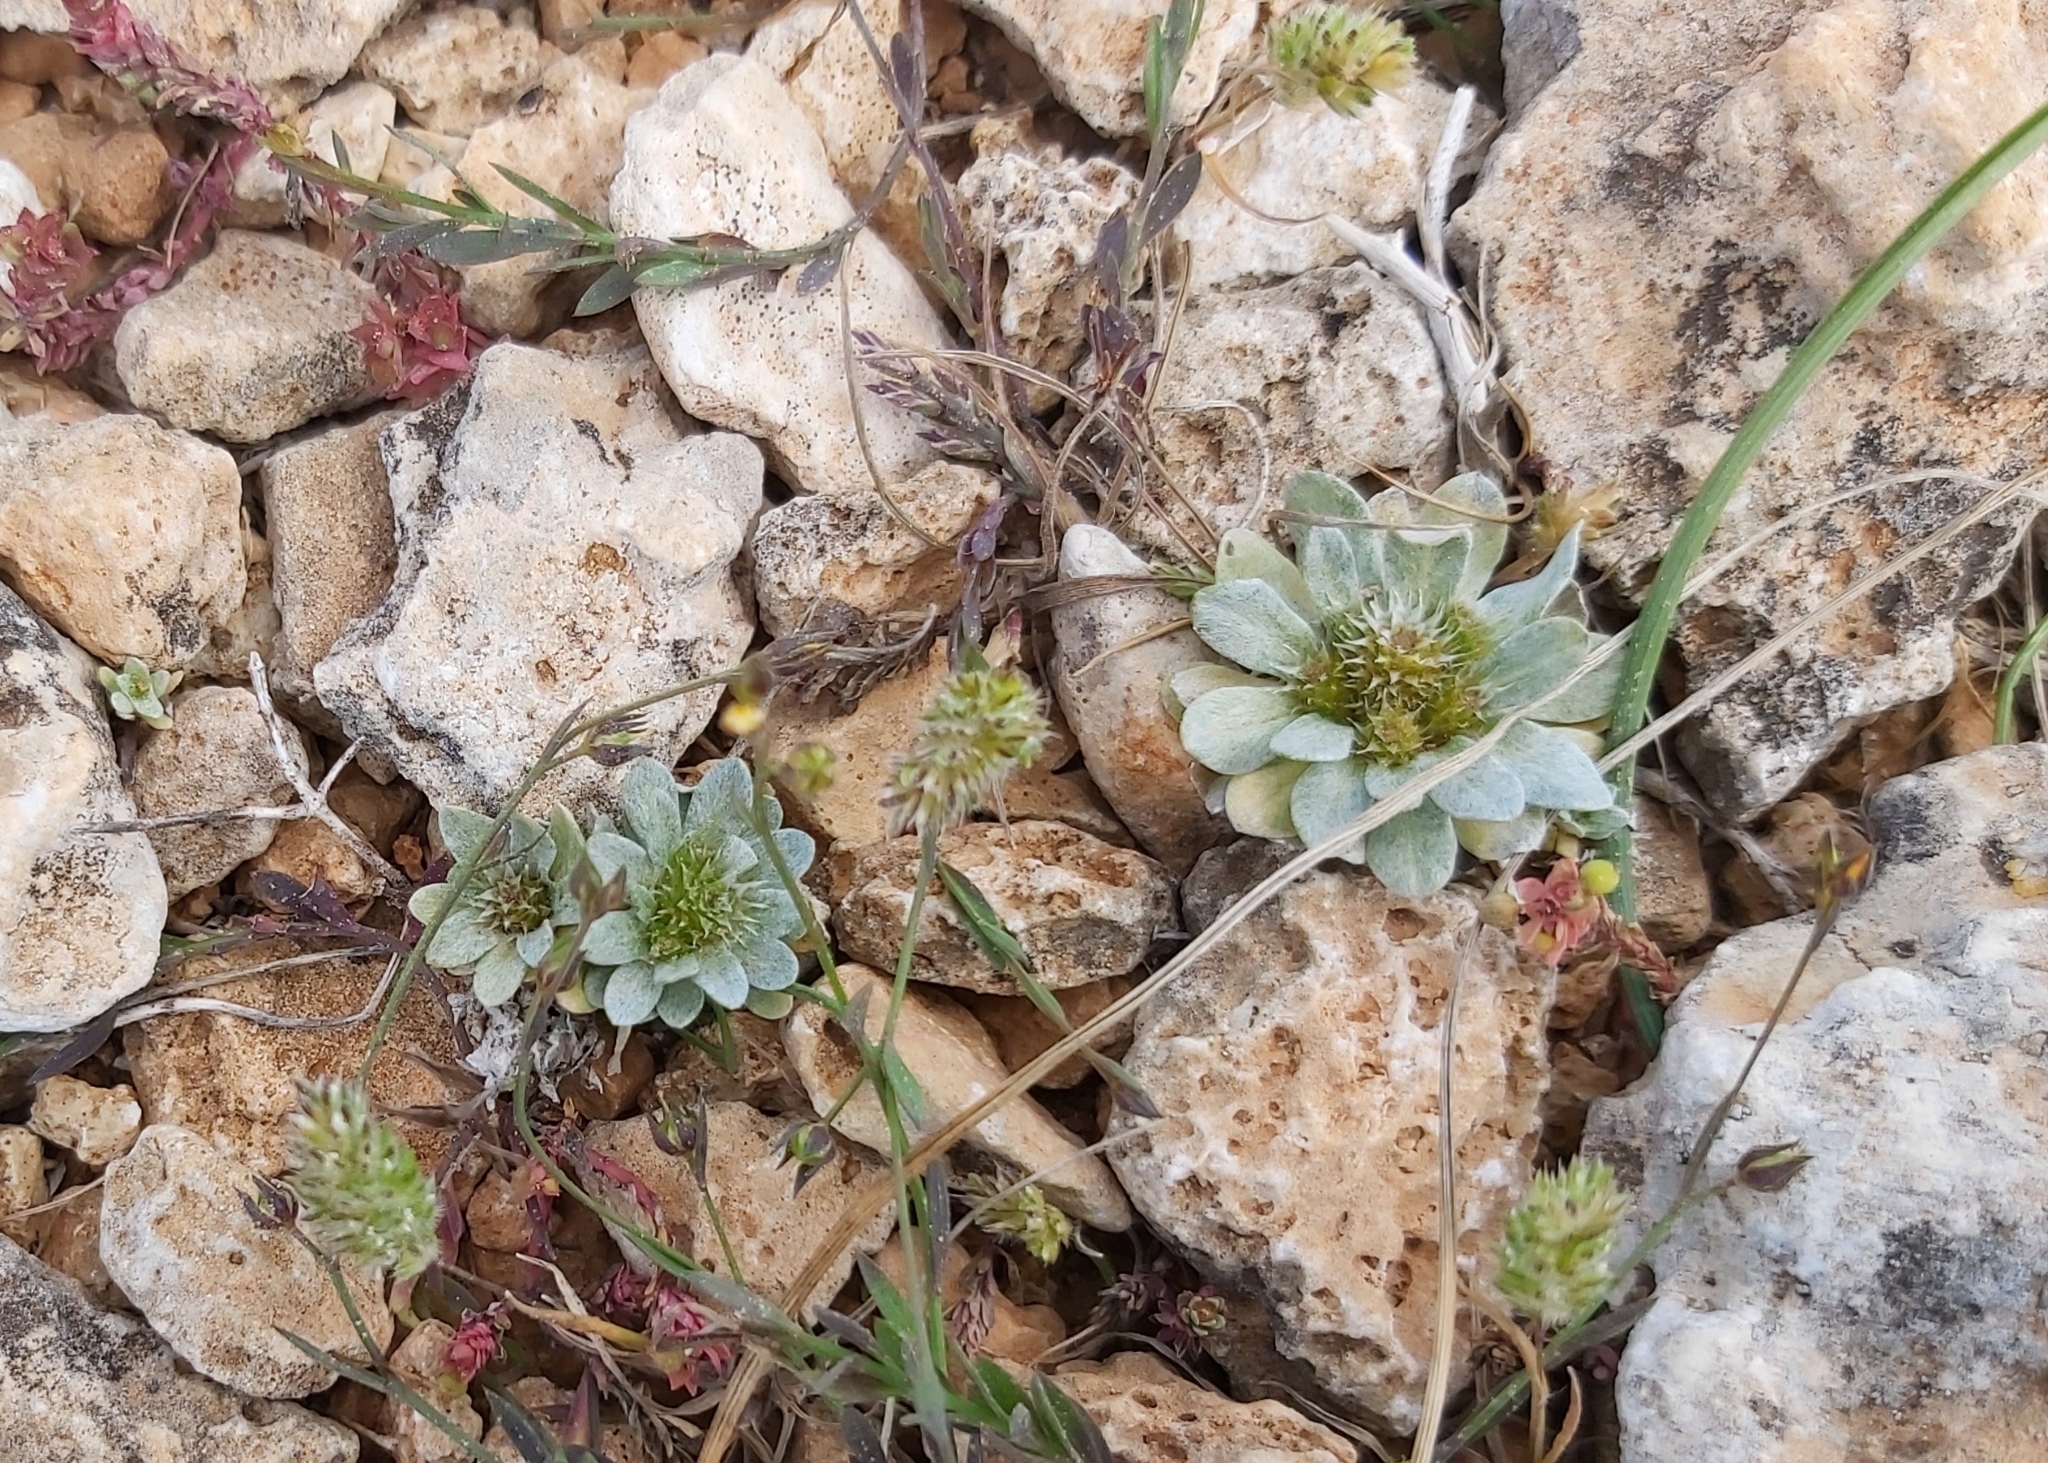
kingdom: Plantae
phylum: Tracheophyta
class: Magnoliopsida
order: Asterales
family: Asteraceae
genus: Filago
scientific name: Filago pygmaea
